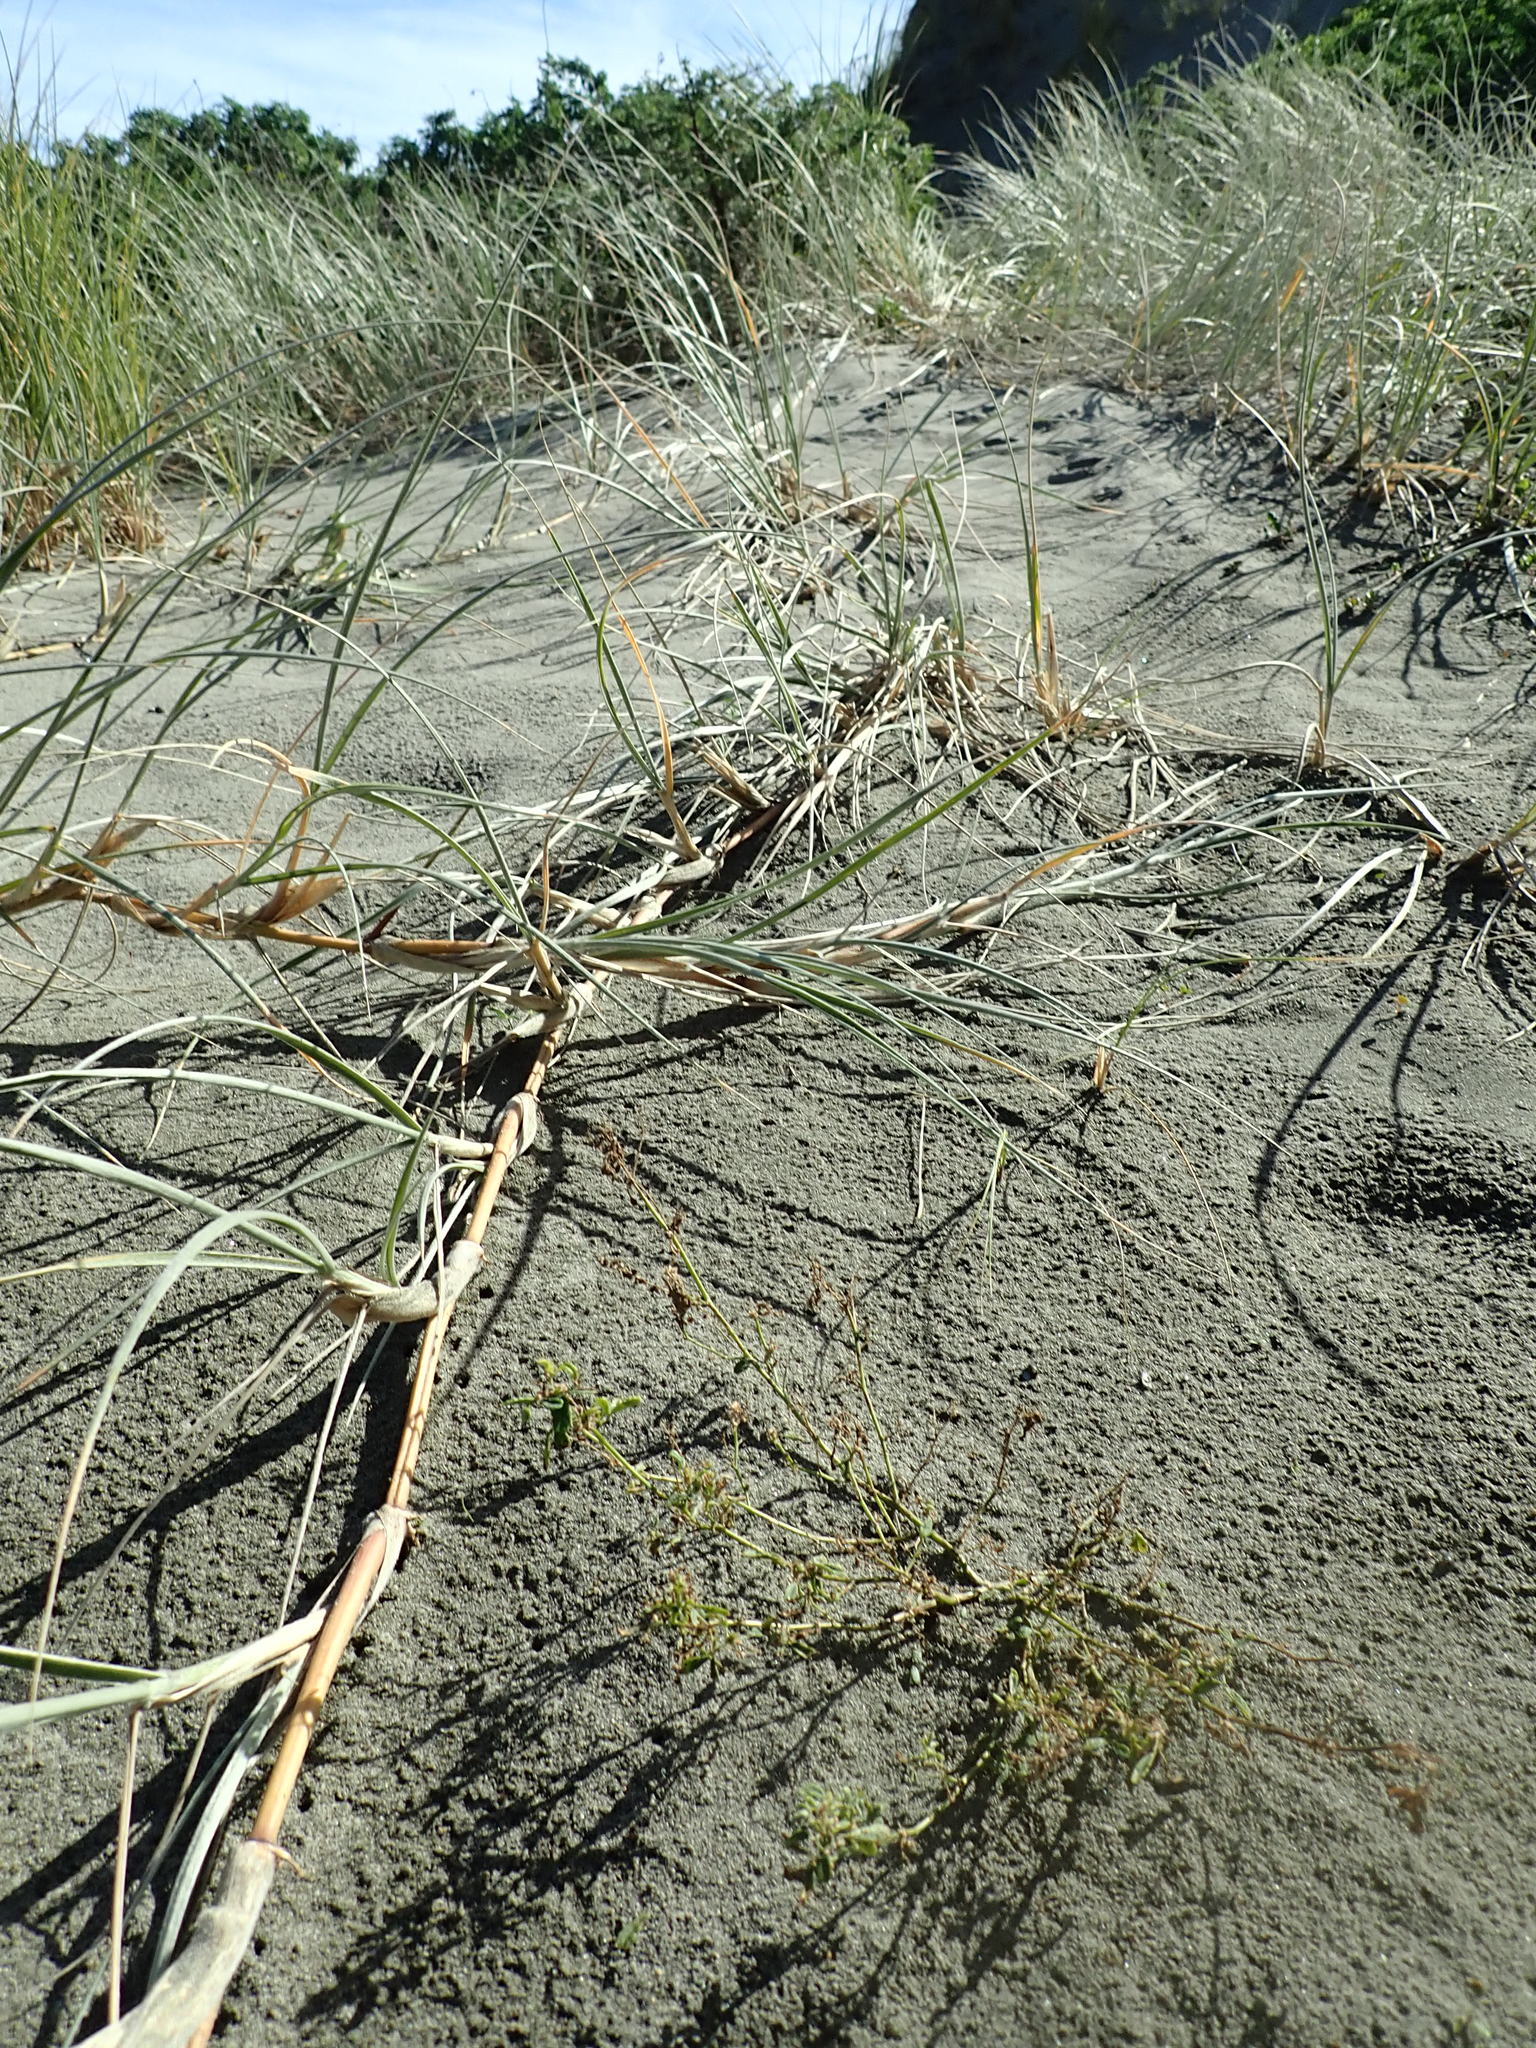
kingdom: Plantae
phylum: Tracheophyta
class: Magnoliopsida
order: Fabales
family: Fabaceae
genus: Melilotus
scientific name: Melilotus indicus
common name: Small melilot
